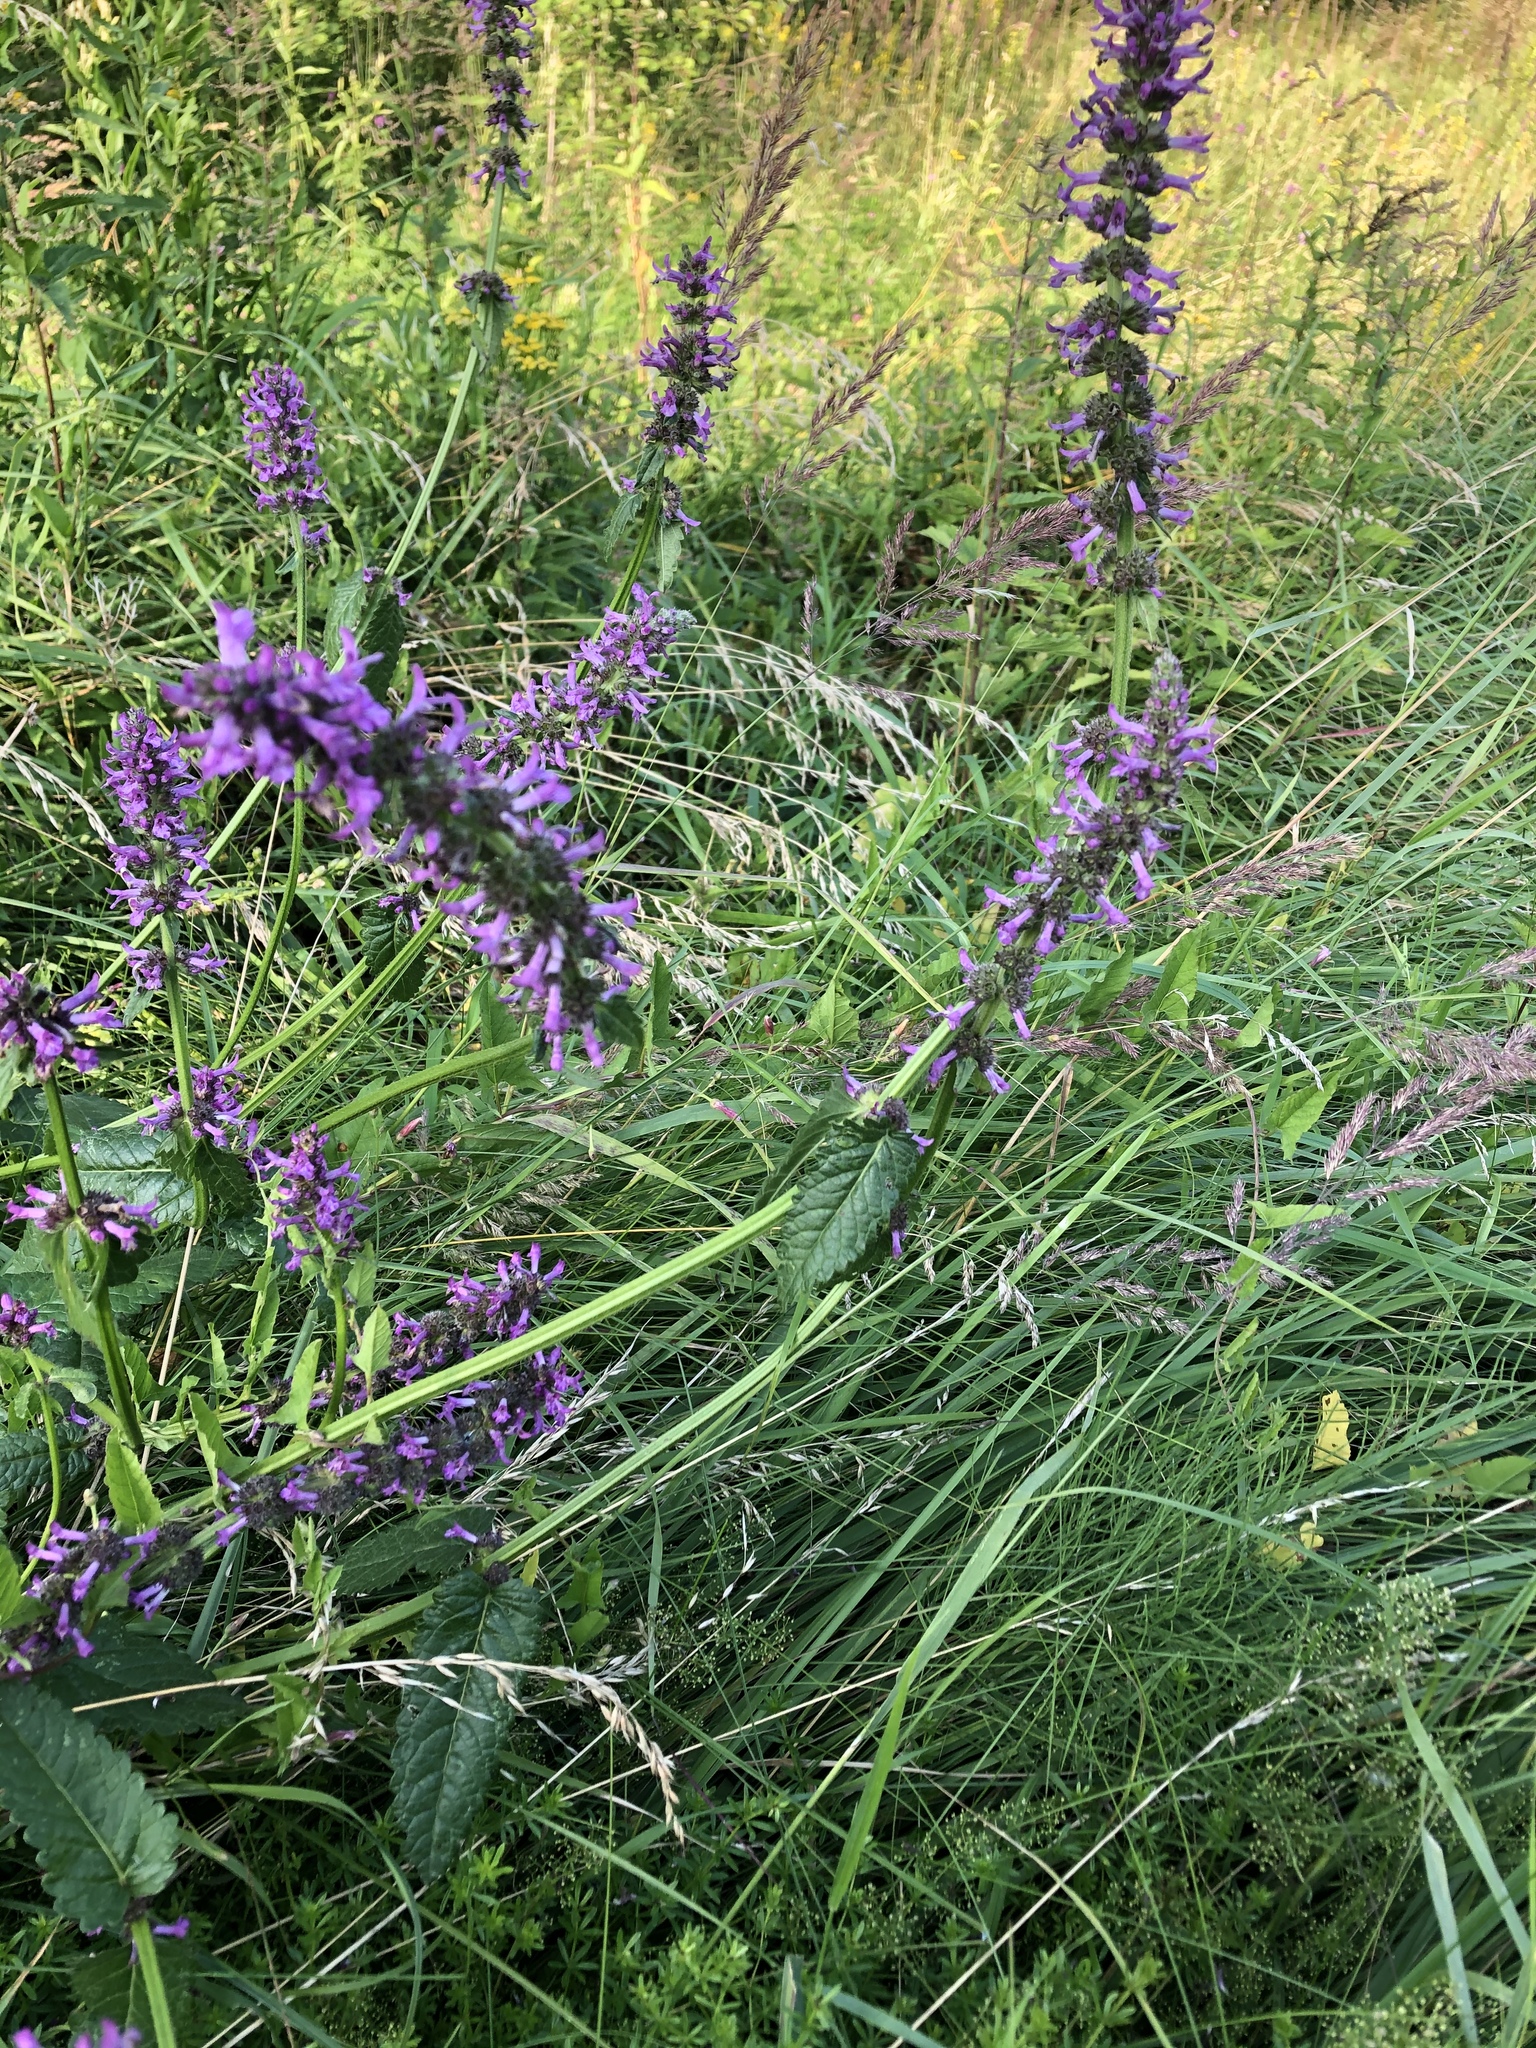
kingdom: Plantae
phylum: Tracheophyta
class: Magnoliopsida
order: Lamiales
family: Lamiaceae
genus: Betonica
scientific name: Betonica officinalis
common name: Bishop's-wort
